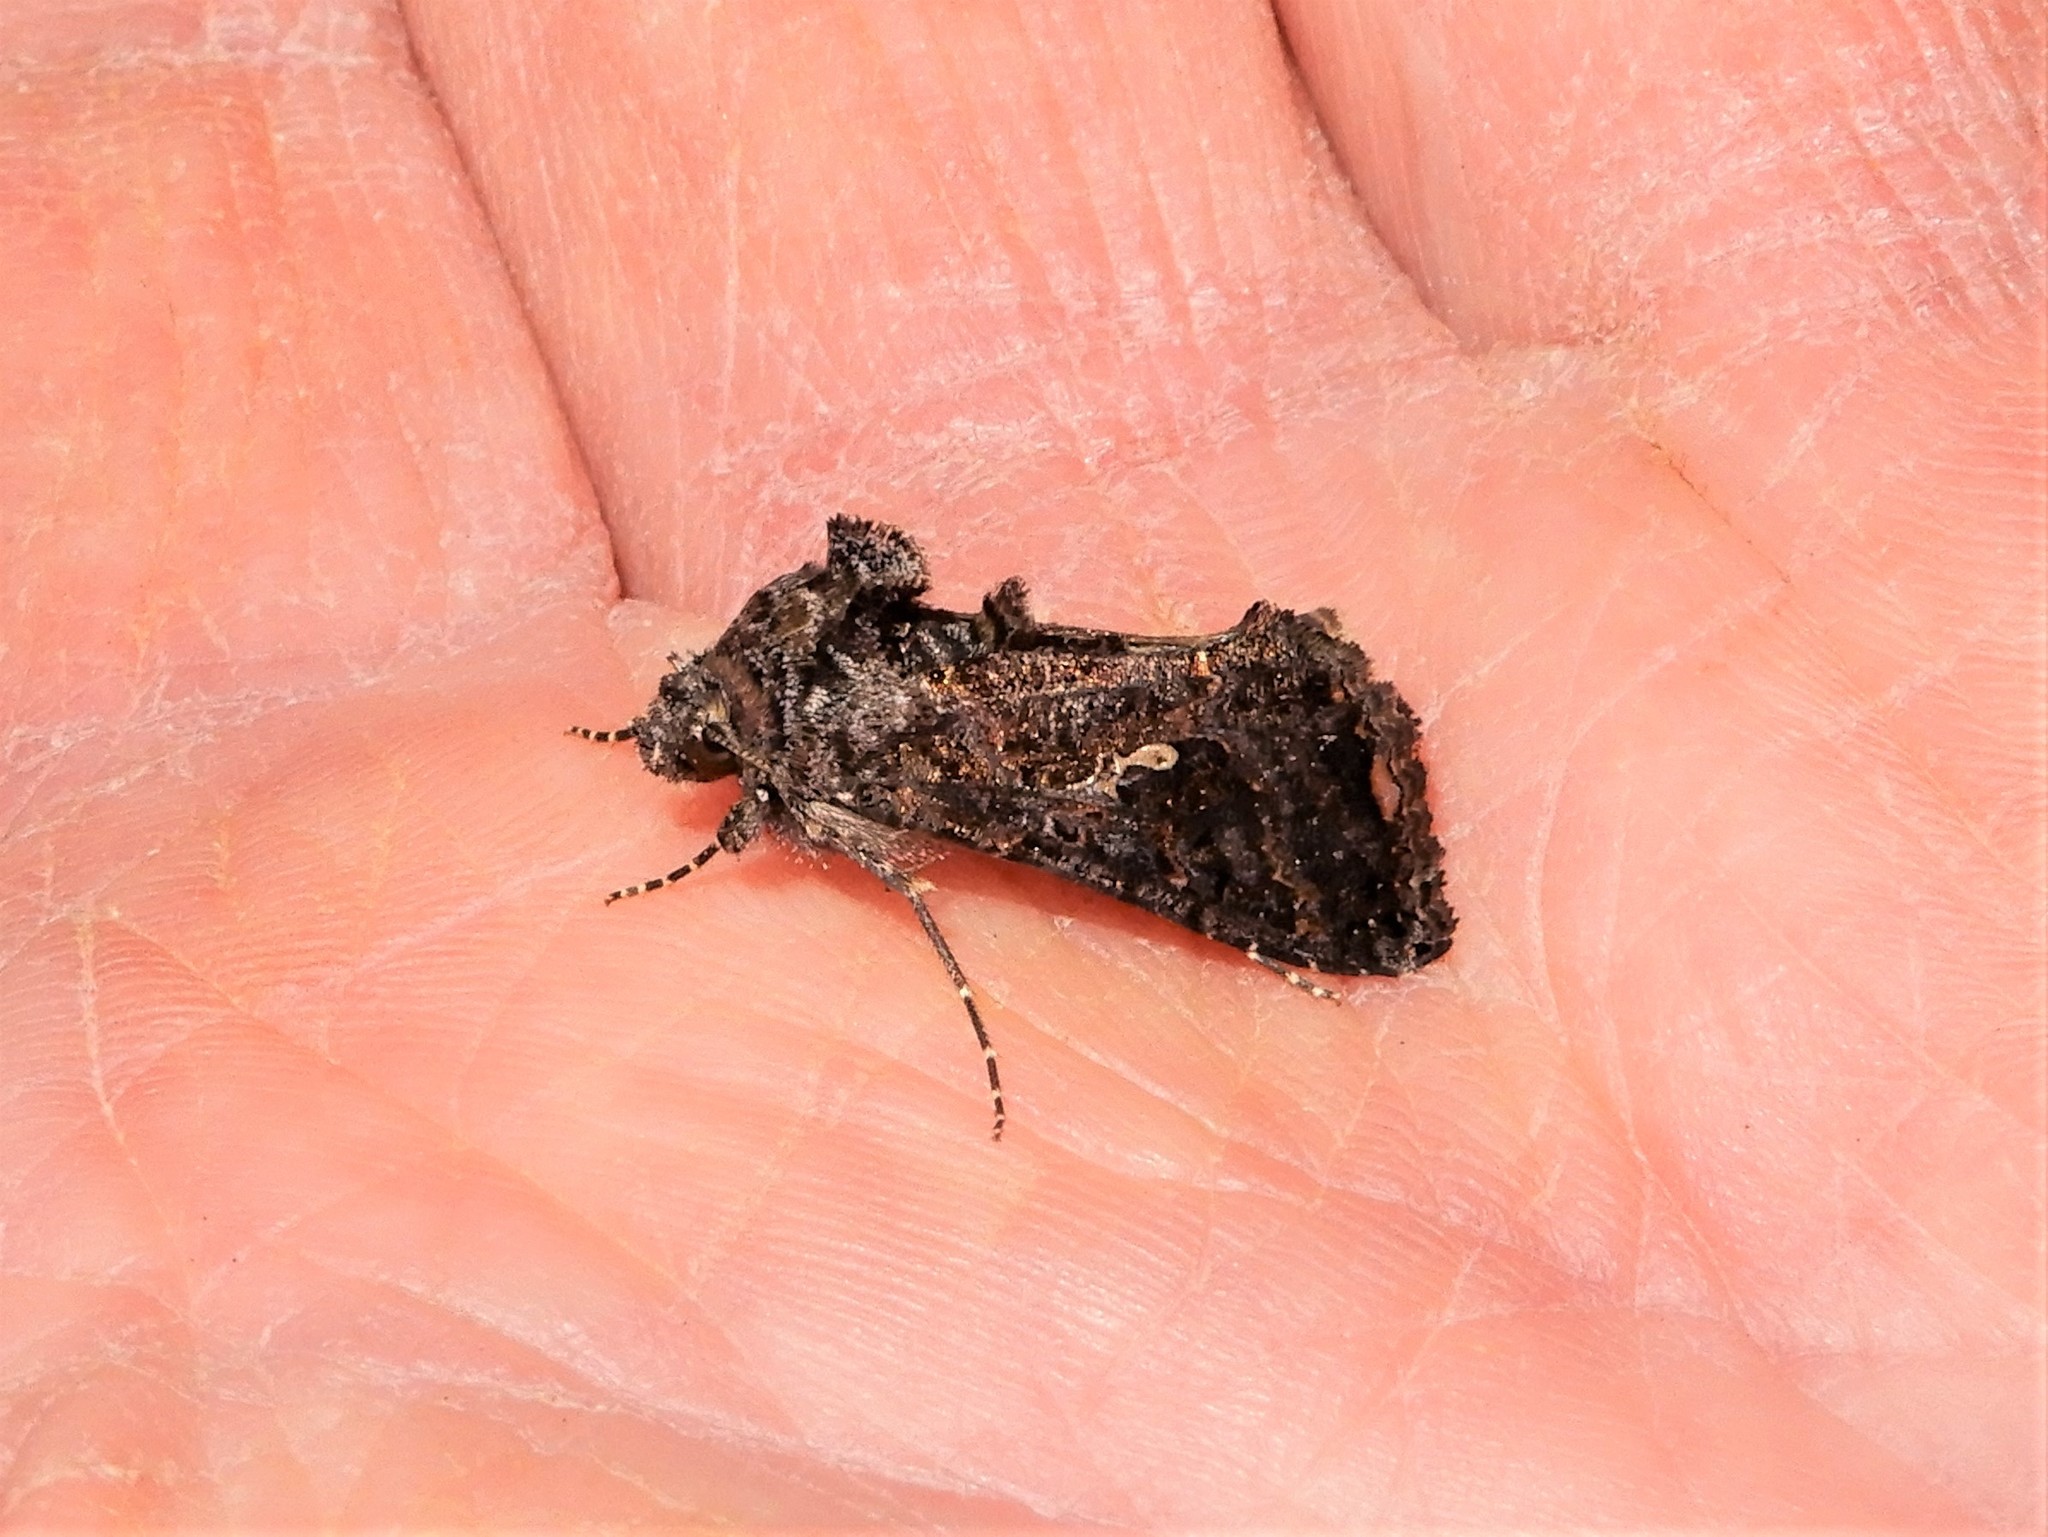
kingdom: Animalia
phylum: Arthropoda
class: Insecta
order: Lepidoptera
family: Noctuidae
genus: Ctenoplusia
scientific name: Ctenoplusia limbirena
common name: Scar bank gem
